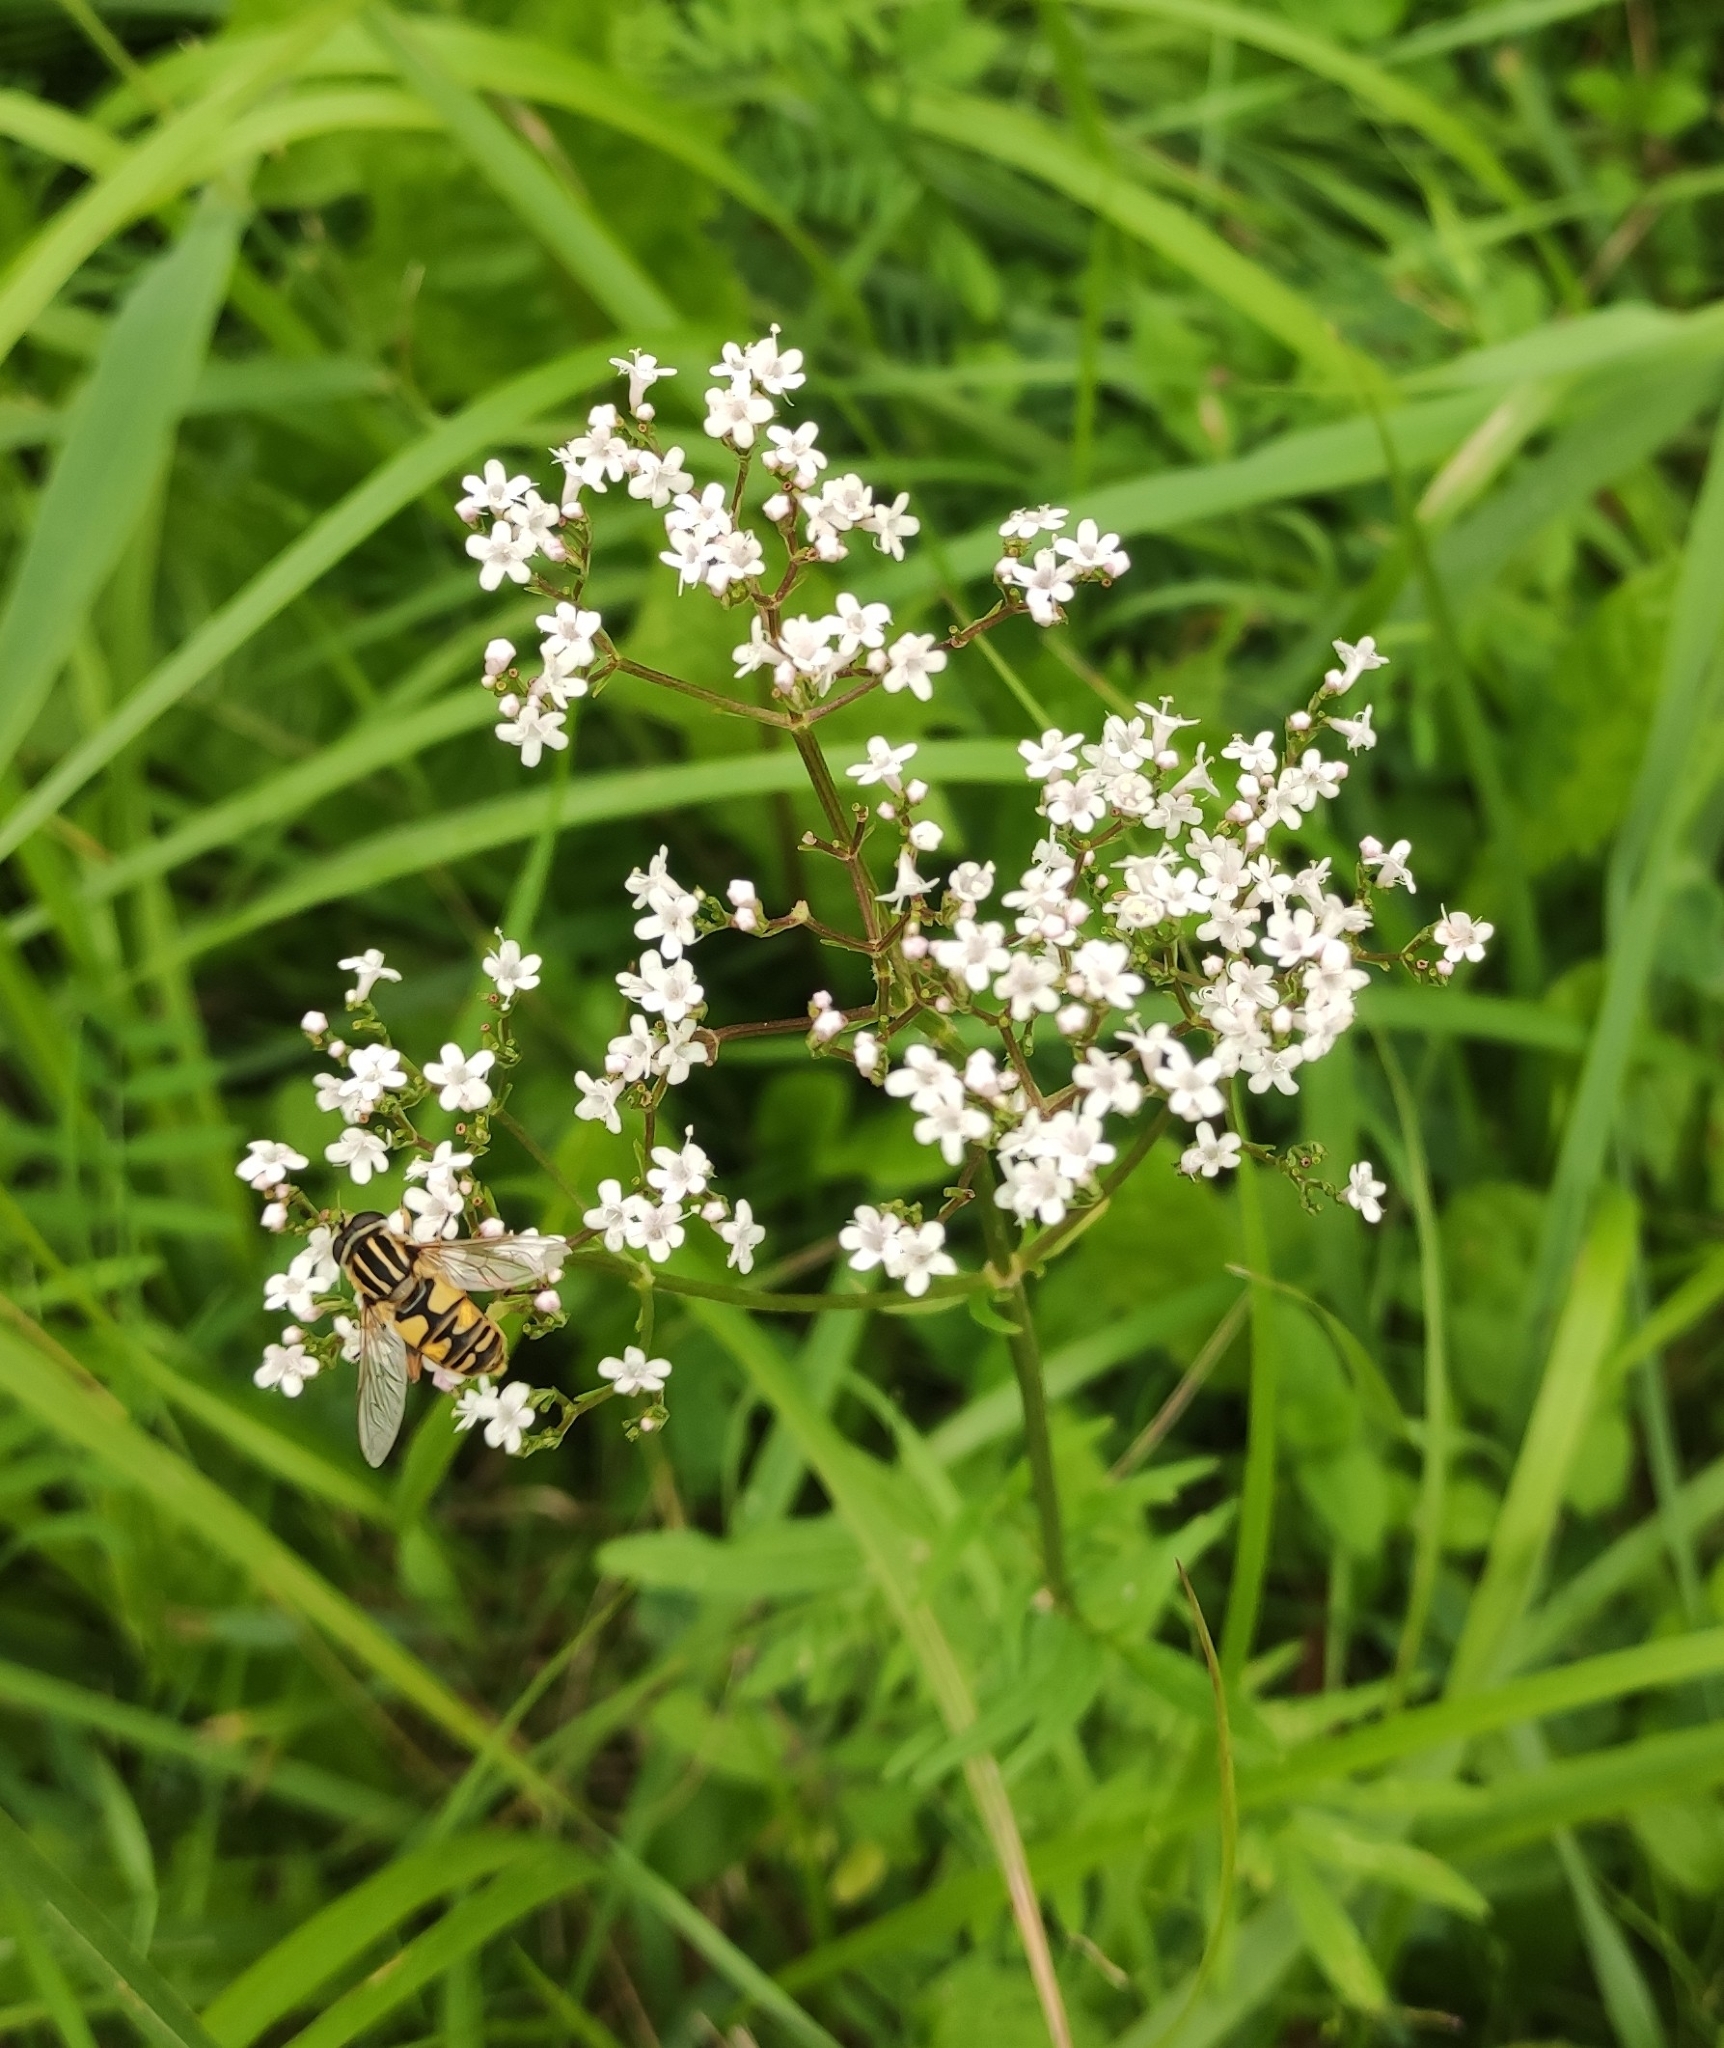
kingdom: Plantae
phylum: Tracheophyta
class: Magnoliopsida
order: Dipsacales
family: Caprifoliaceae
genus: Valeriana
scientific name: Valeriana officinalis
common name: Common valerian
